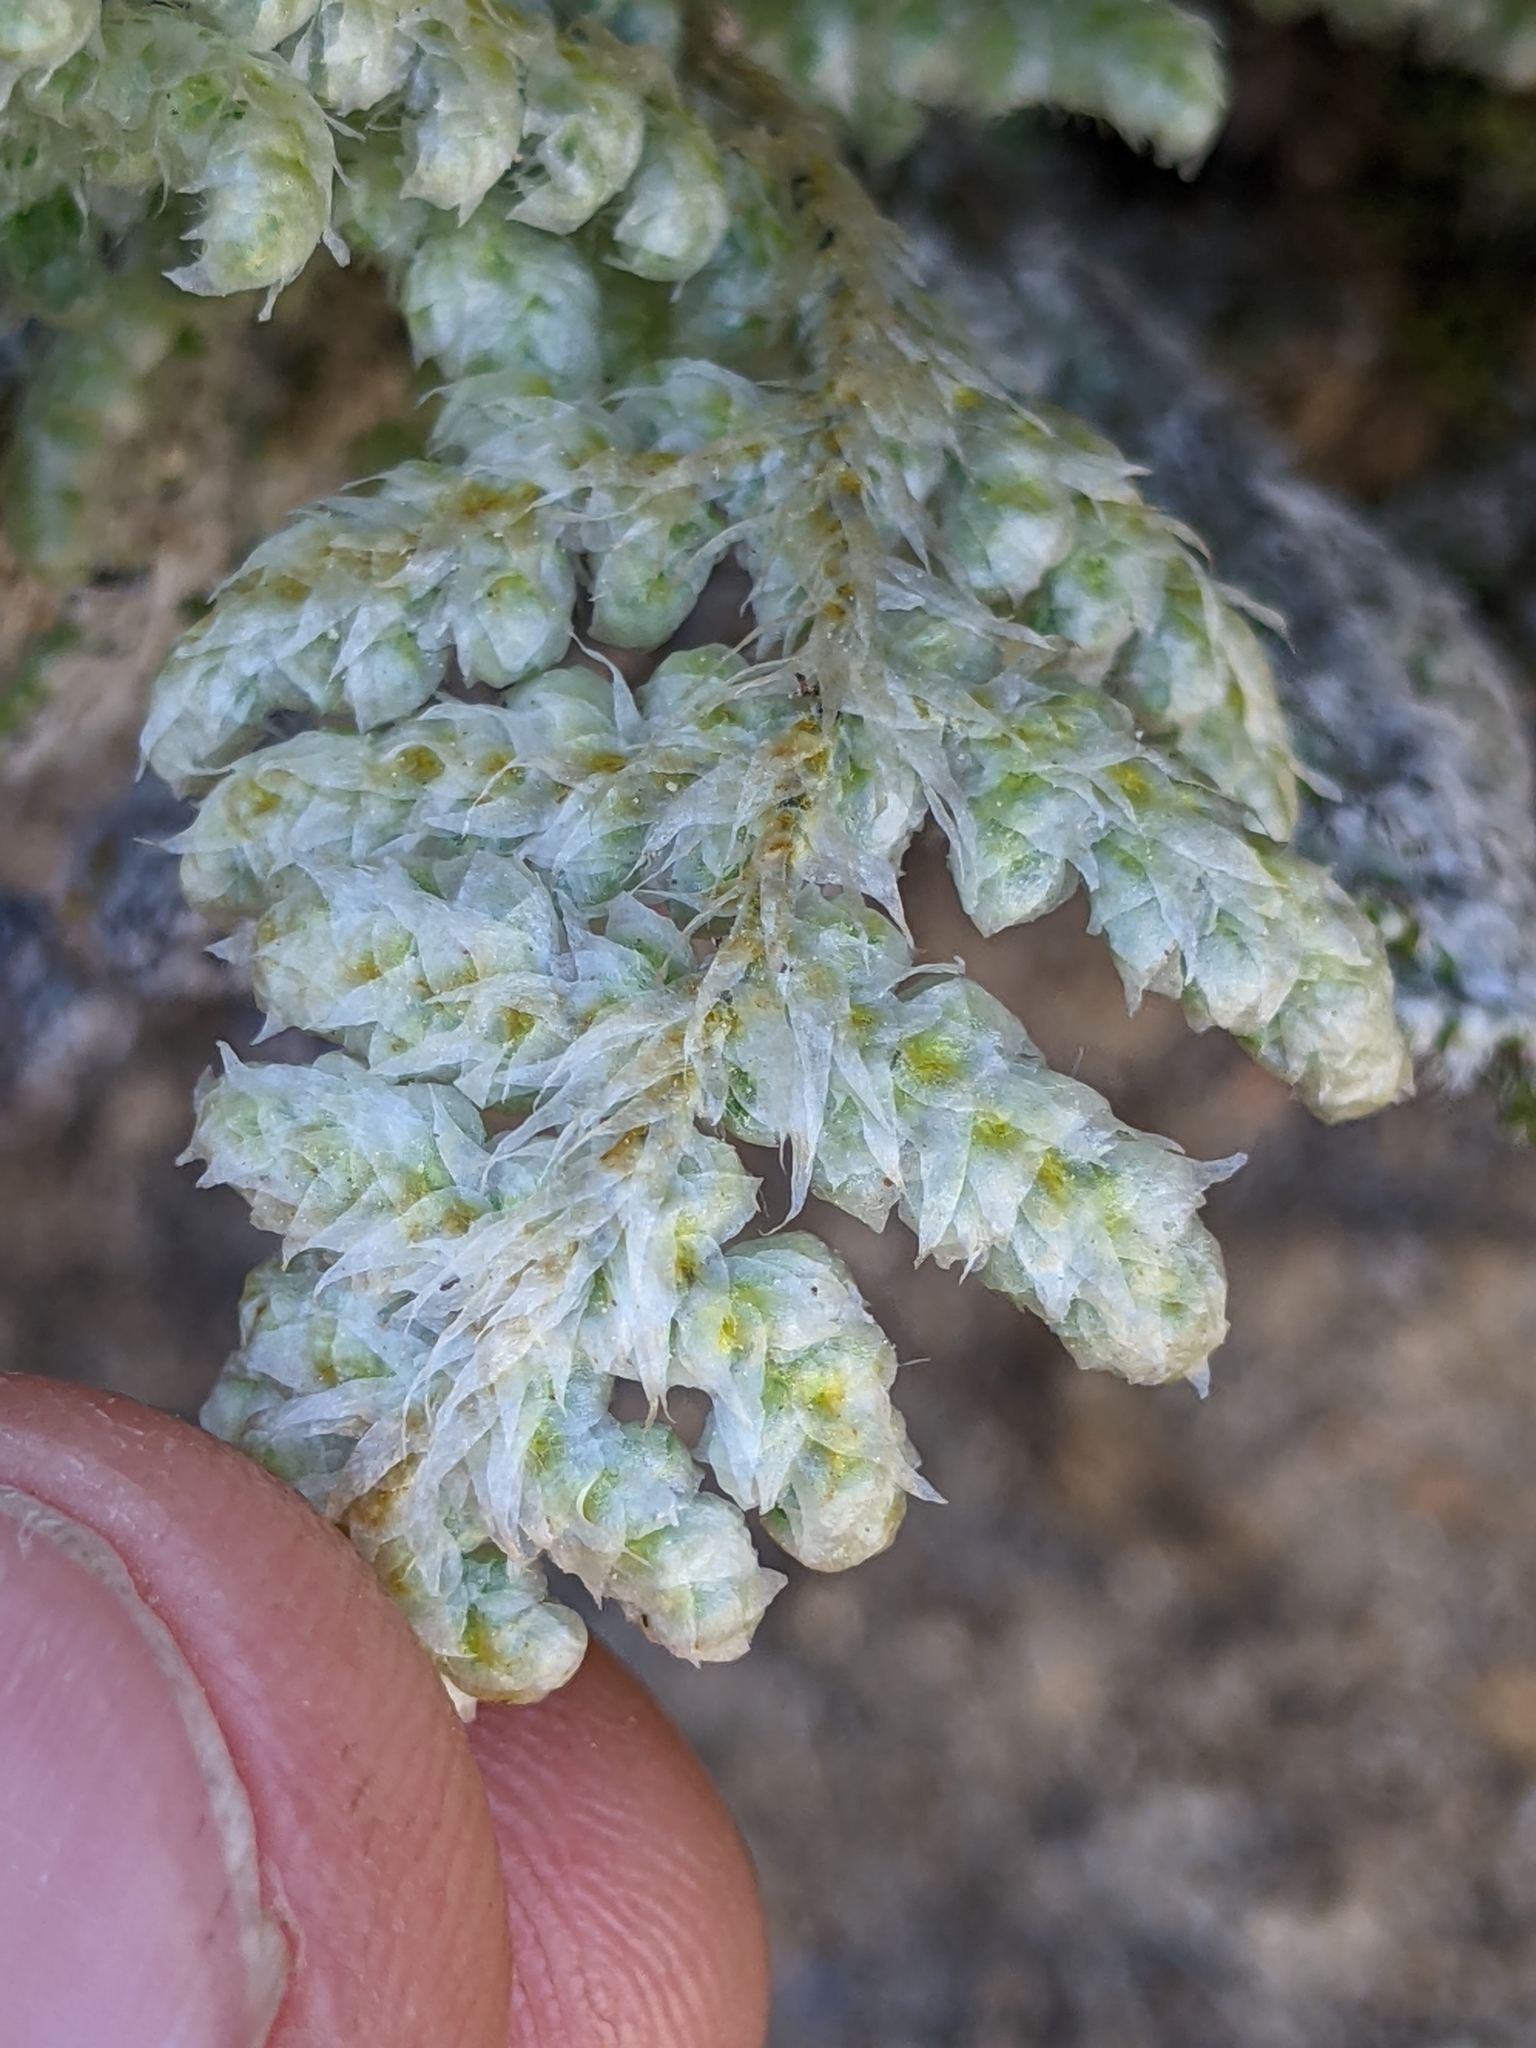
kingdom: Plantae
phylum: Tracheophyta
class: Polypodiopsida
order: Polypodiales
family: Pteridaceae
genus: Myriopteris
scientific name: Myriopteris covillei
